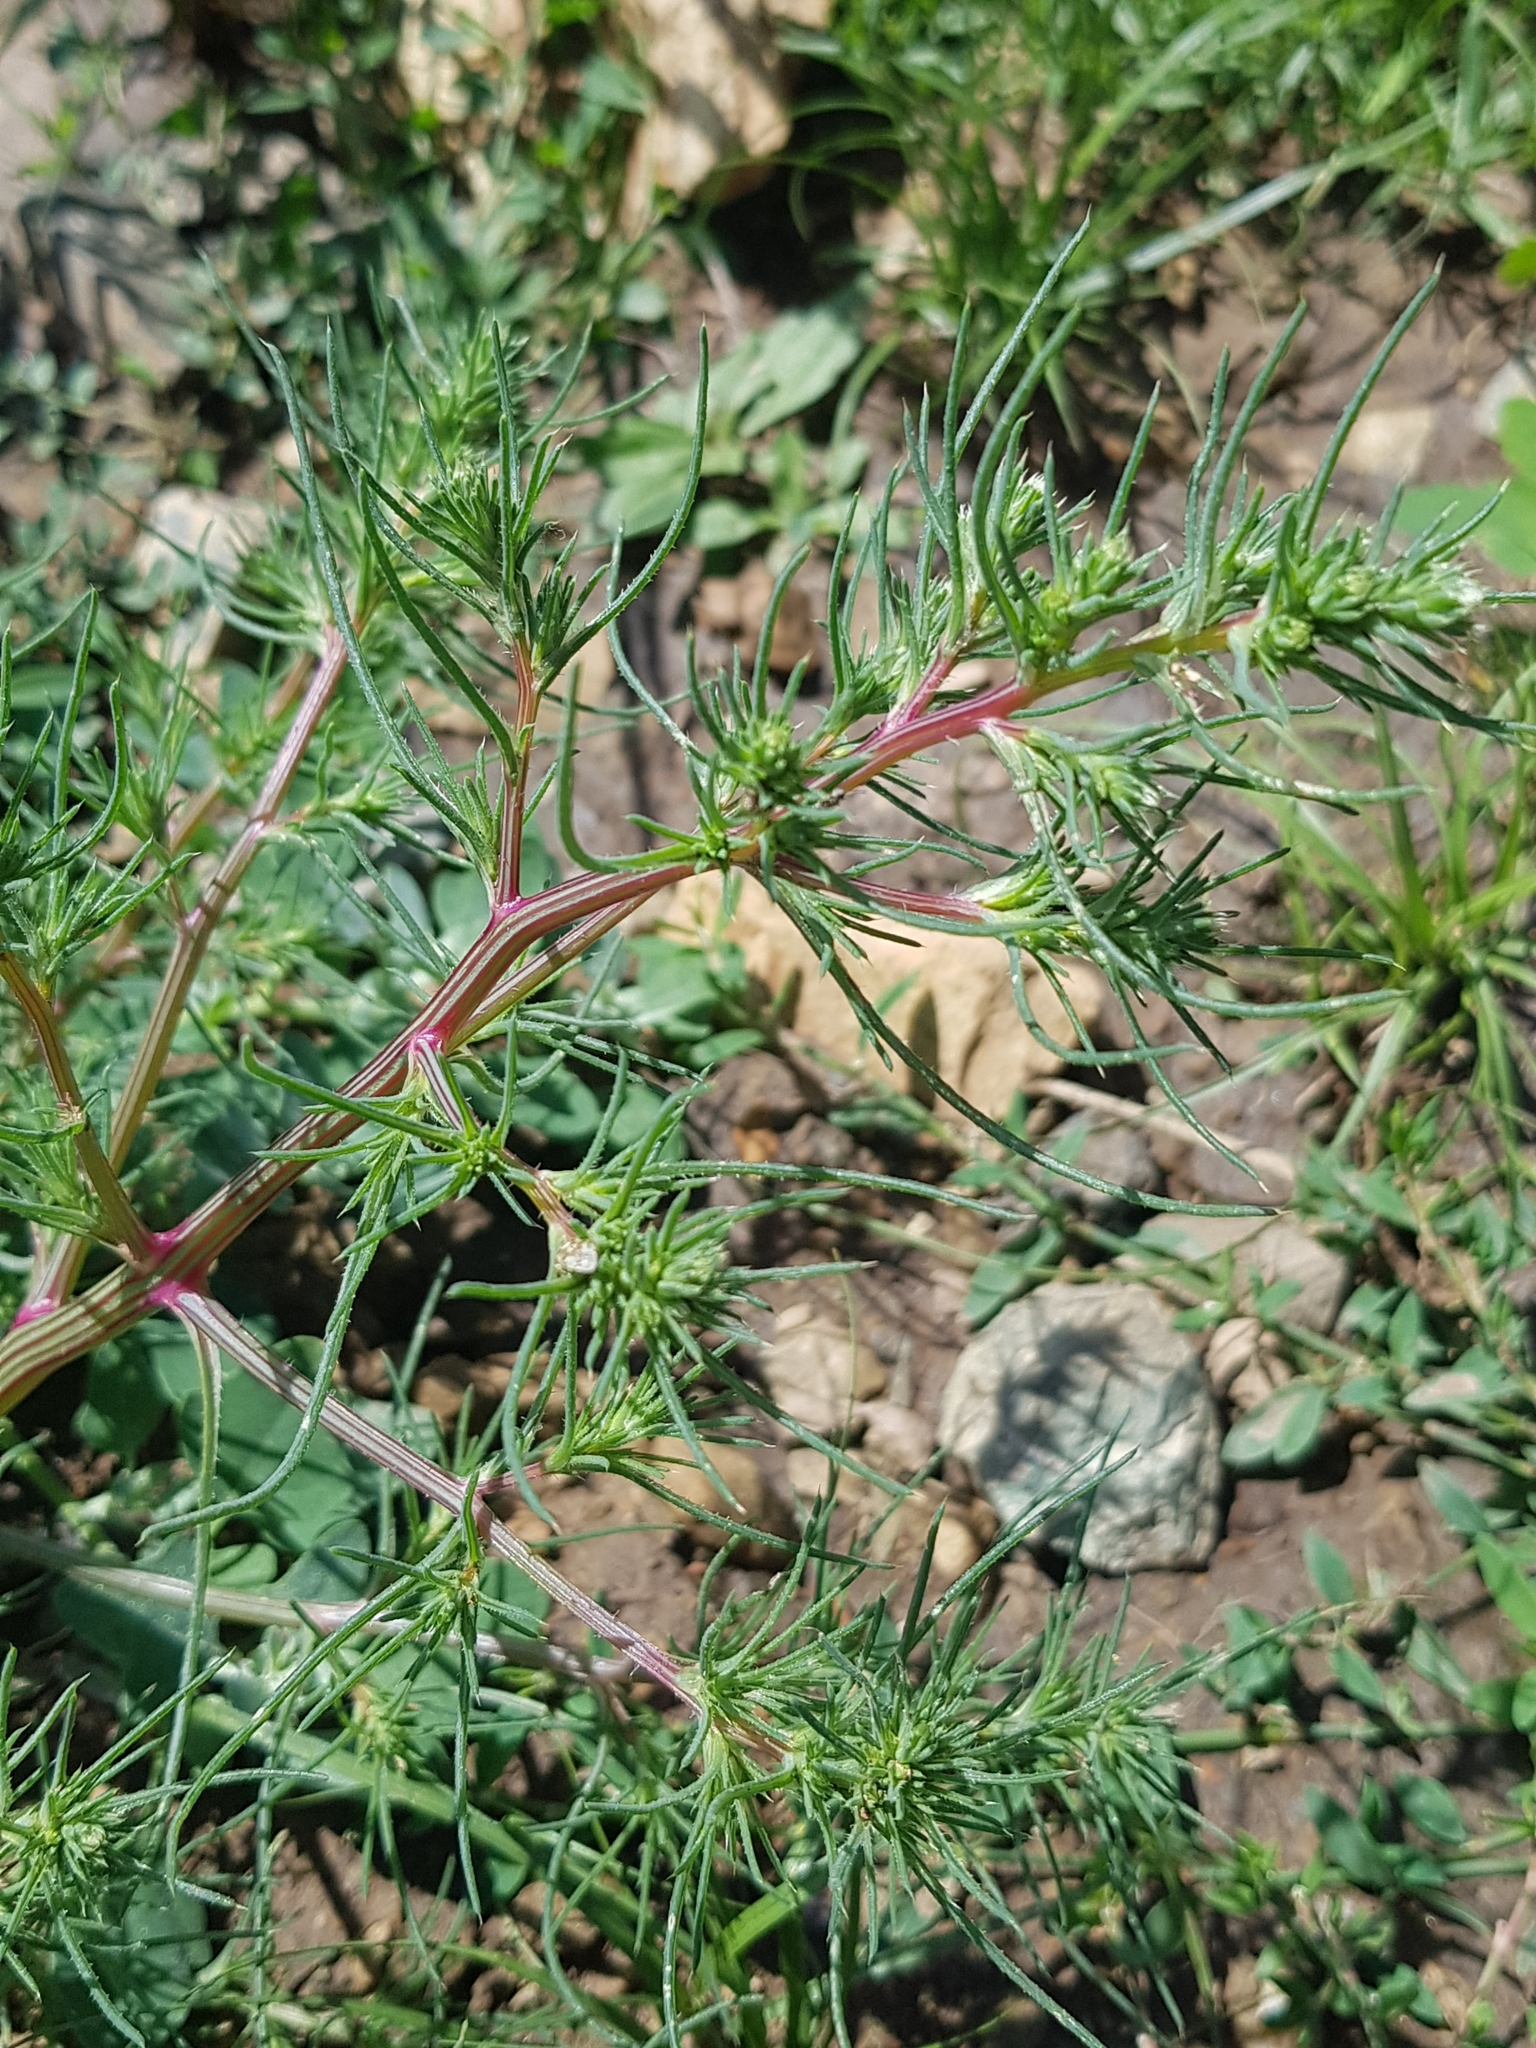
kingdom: Plantae
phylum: Tracheophyta
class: Magnoliopsida
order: Caryophyllales
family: Amaranthaceae
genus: Salsola
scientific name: Salsola collina
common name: Tumbleweed
